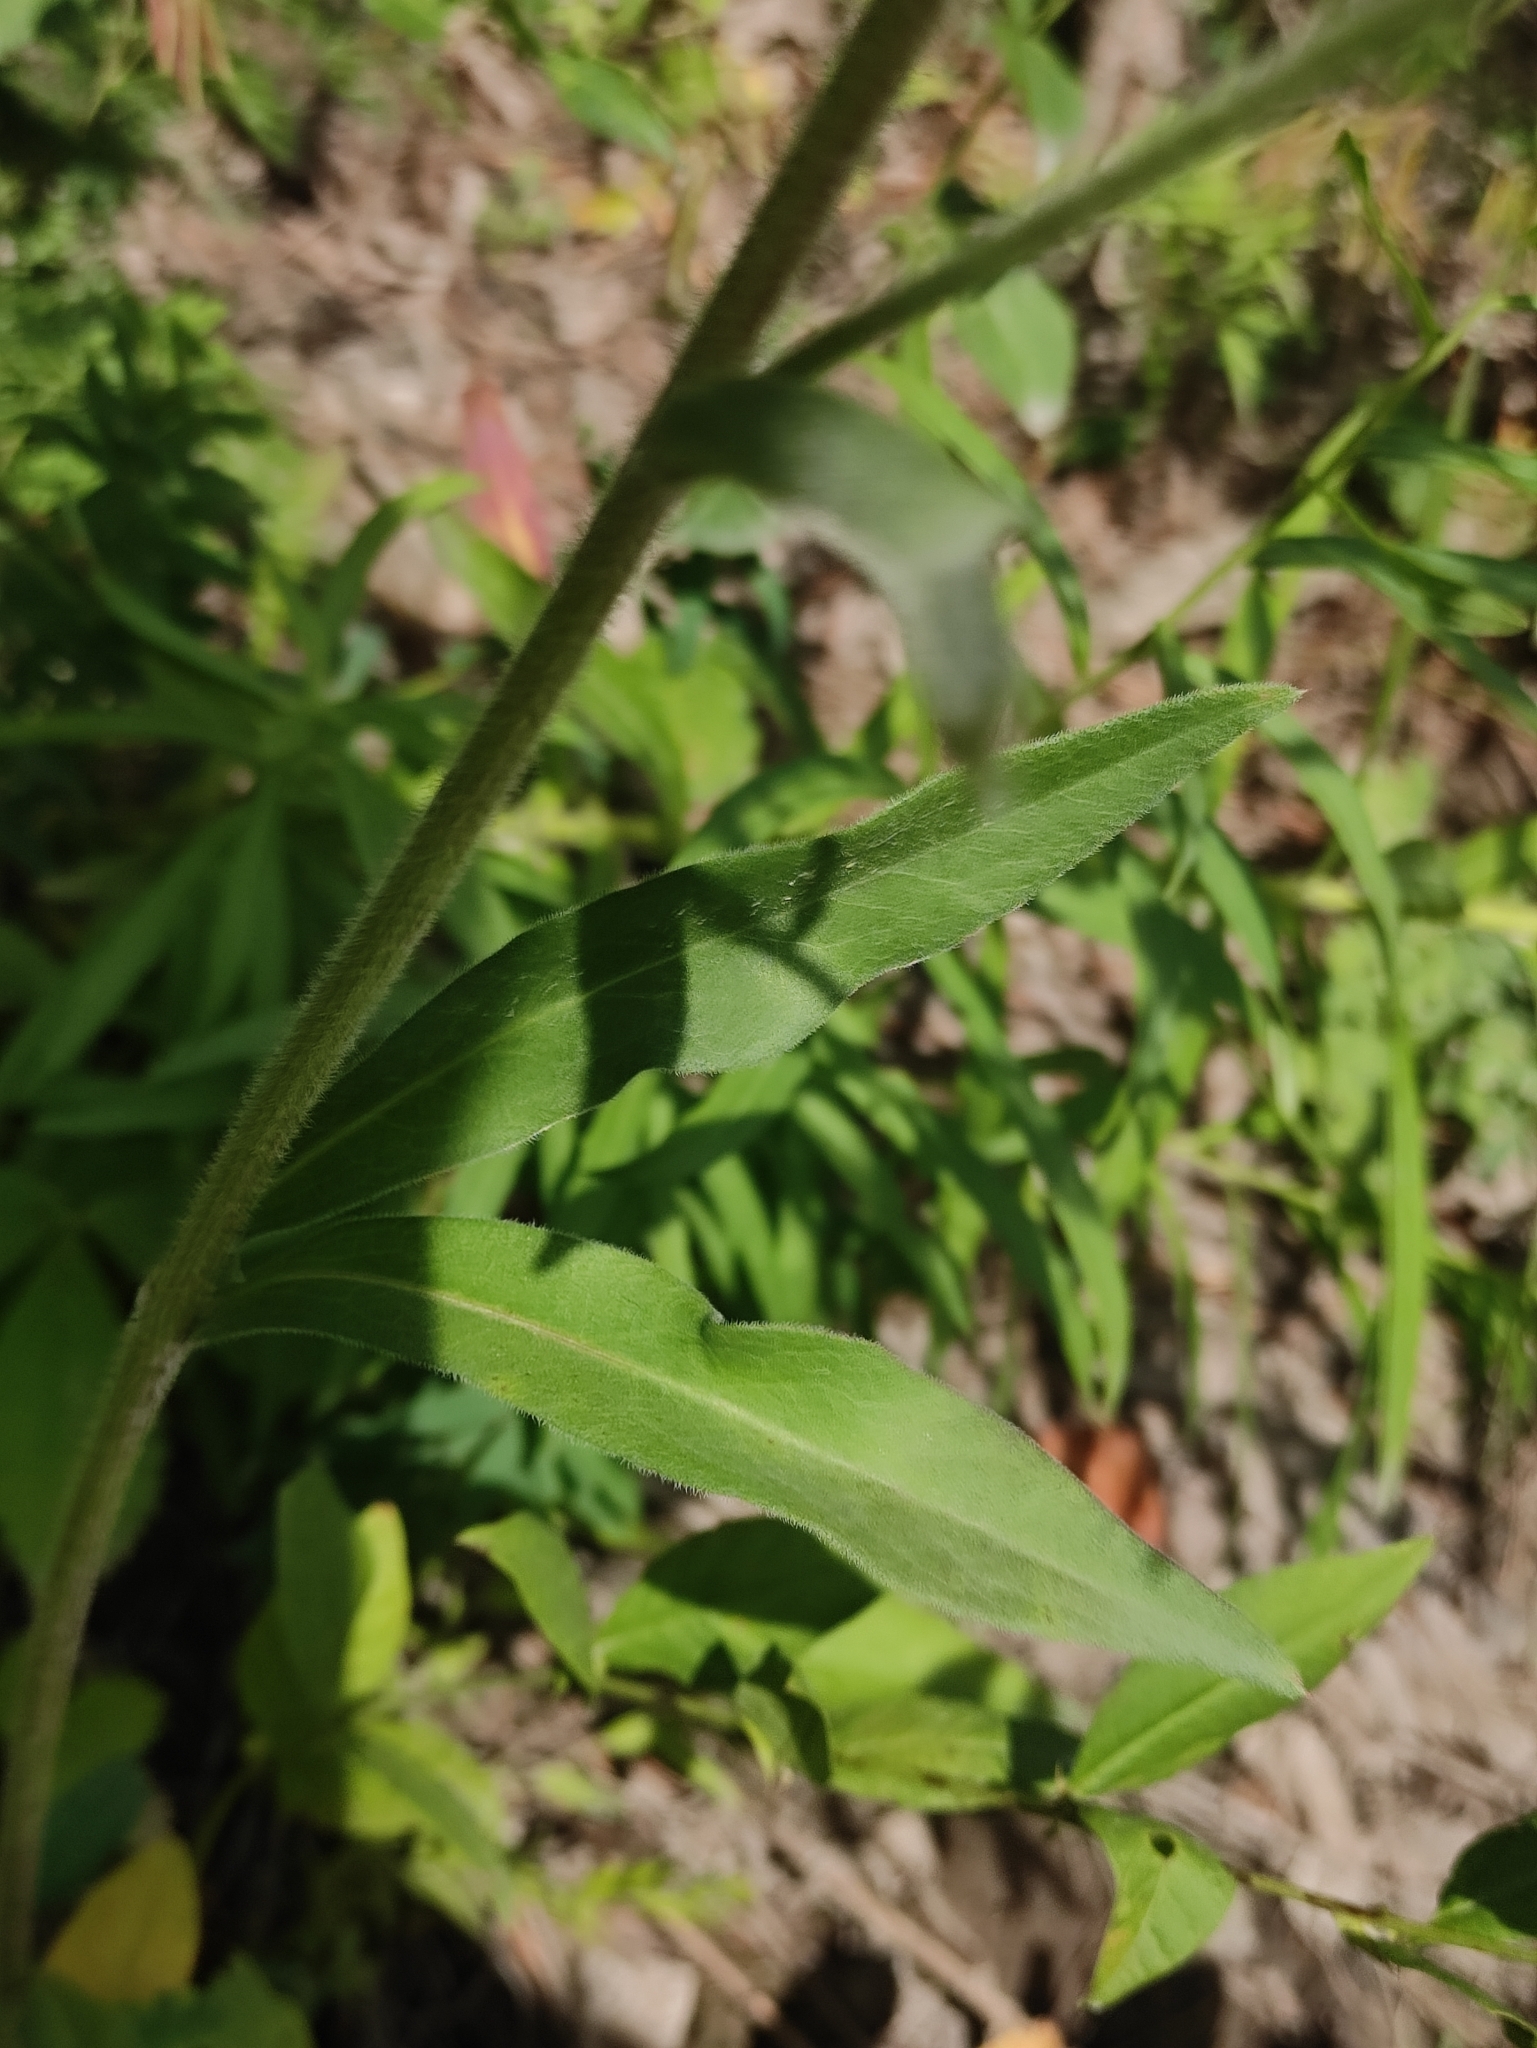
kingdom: Plantae
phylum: Tracheophyta
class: Magnoliopsida
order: Asterales
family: Asteraceae
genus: Aster
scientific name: Aster tataricus
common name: Tatarian aster
